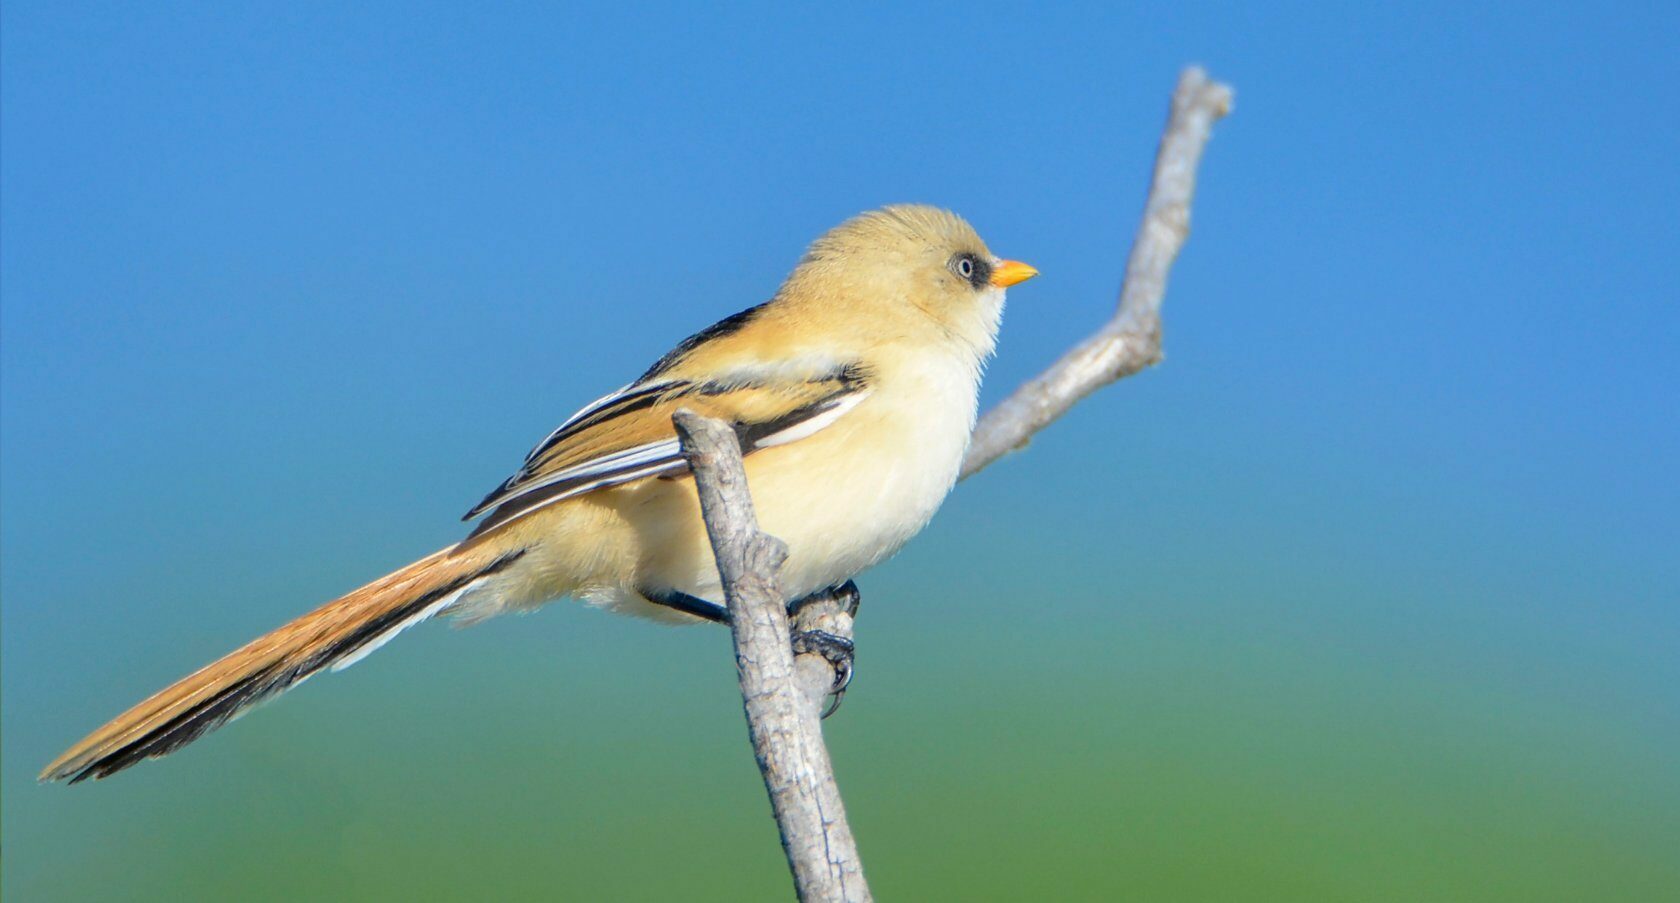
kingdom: Animalia
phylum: Chordata
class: Aves
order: Passeriformes
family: Panuridae
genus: Panurus
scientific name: Panurus biarmicus
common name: Bearded reedling
